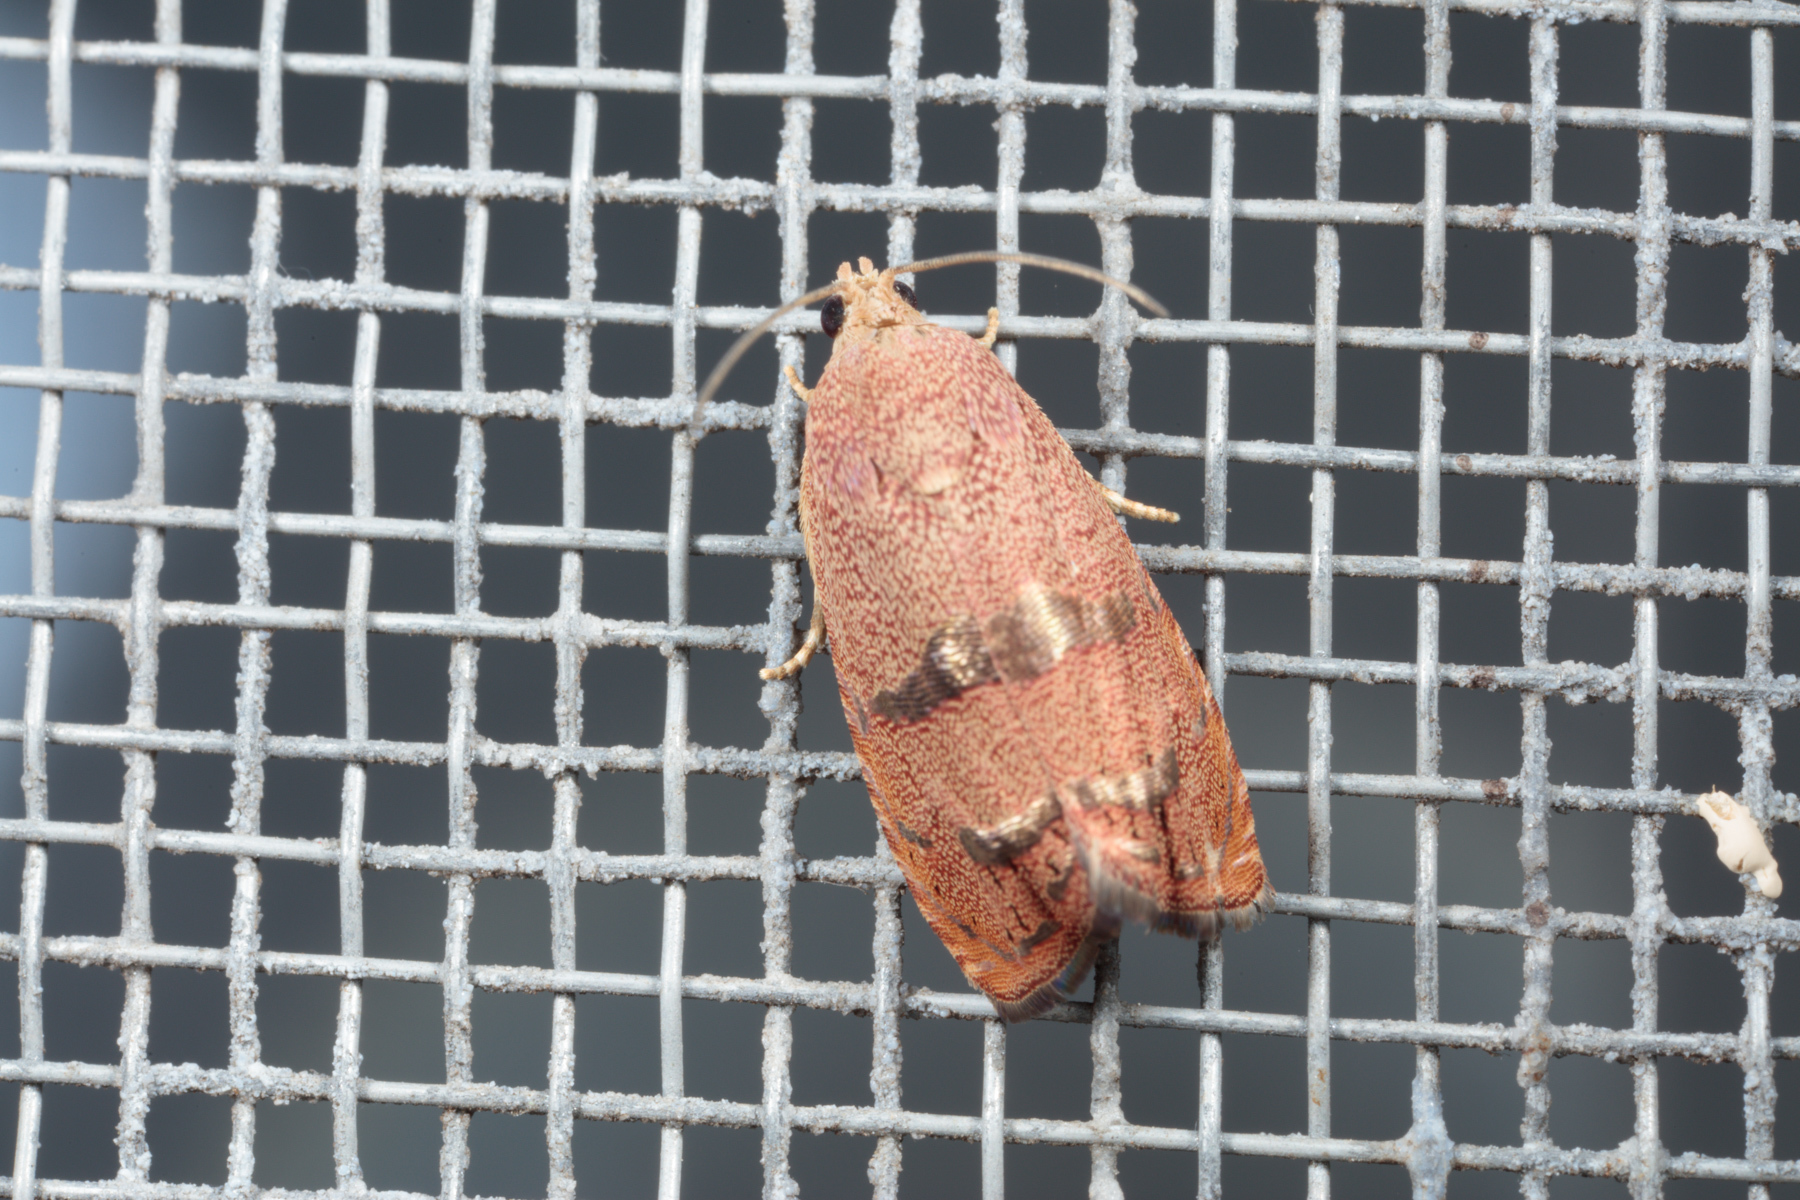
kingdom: Animalia
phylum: Arthropoda
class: Insecta
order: Lepidoptera
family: Tortricidae
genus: Cydia
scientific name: Cydia latiferreana
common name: Filbertworm moth
